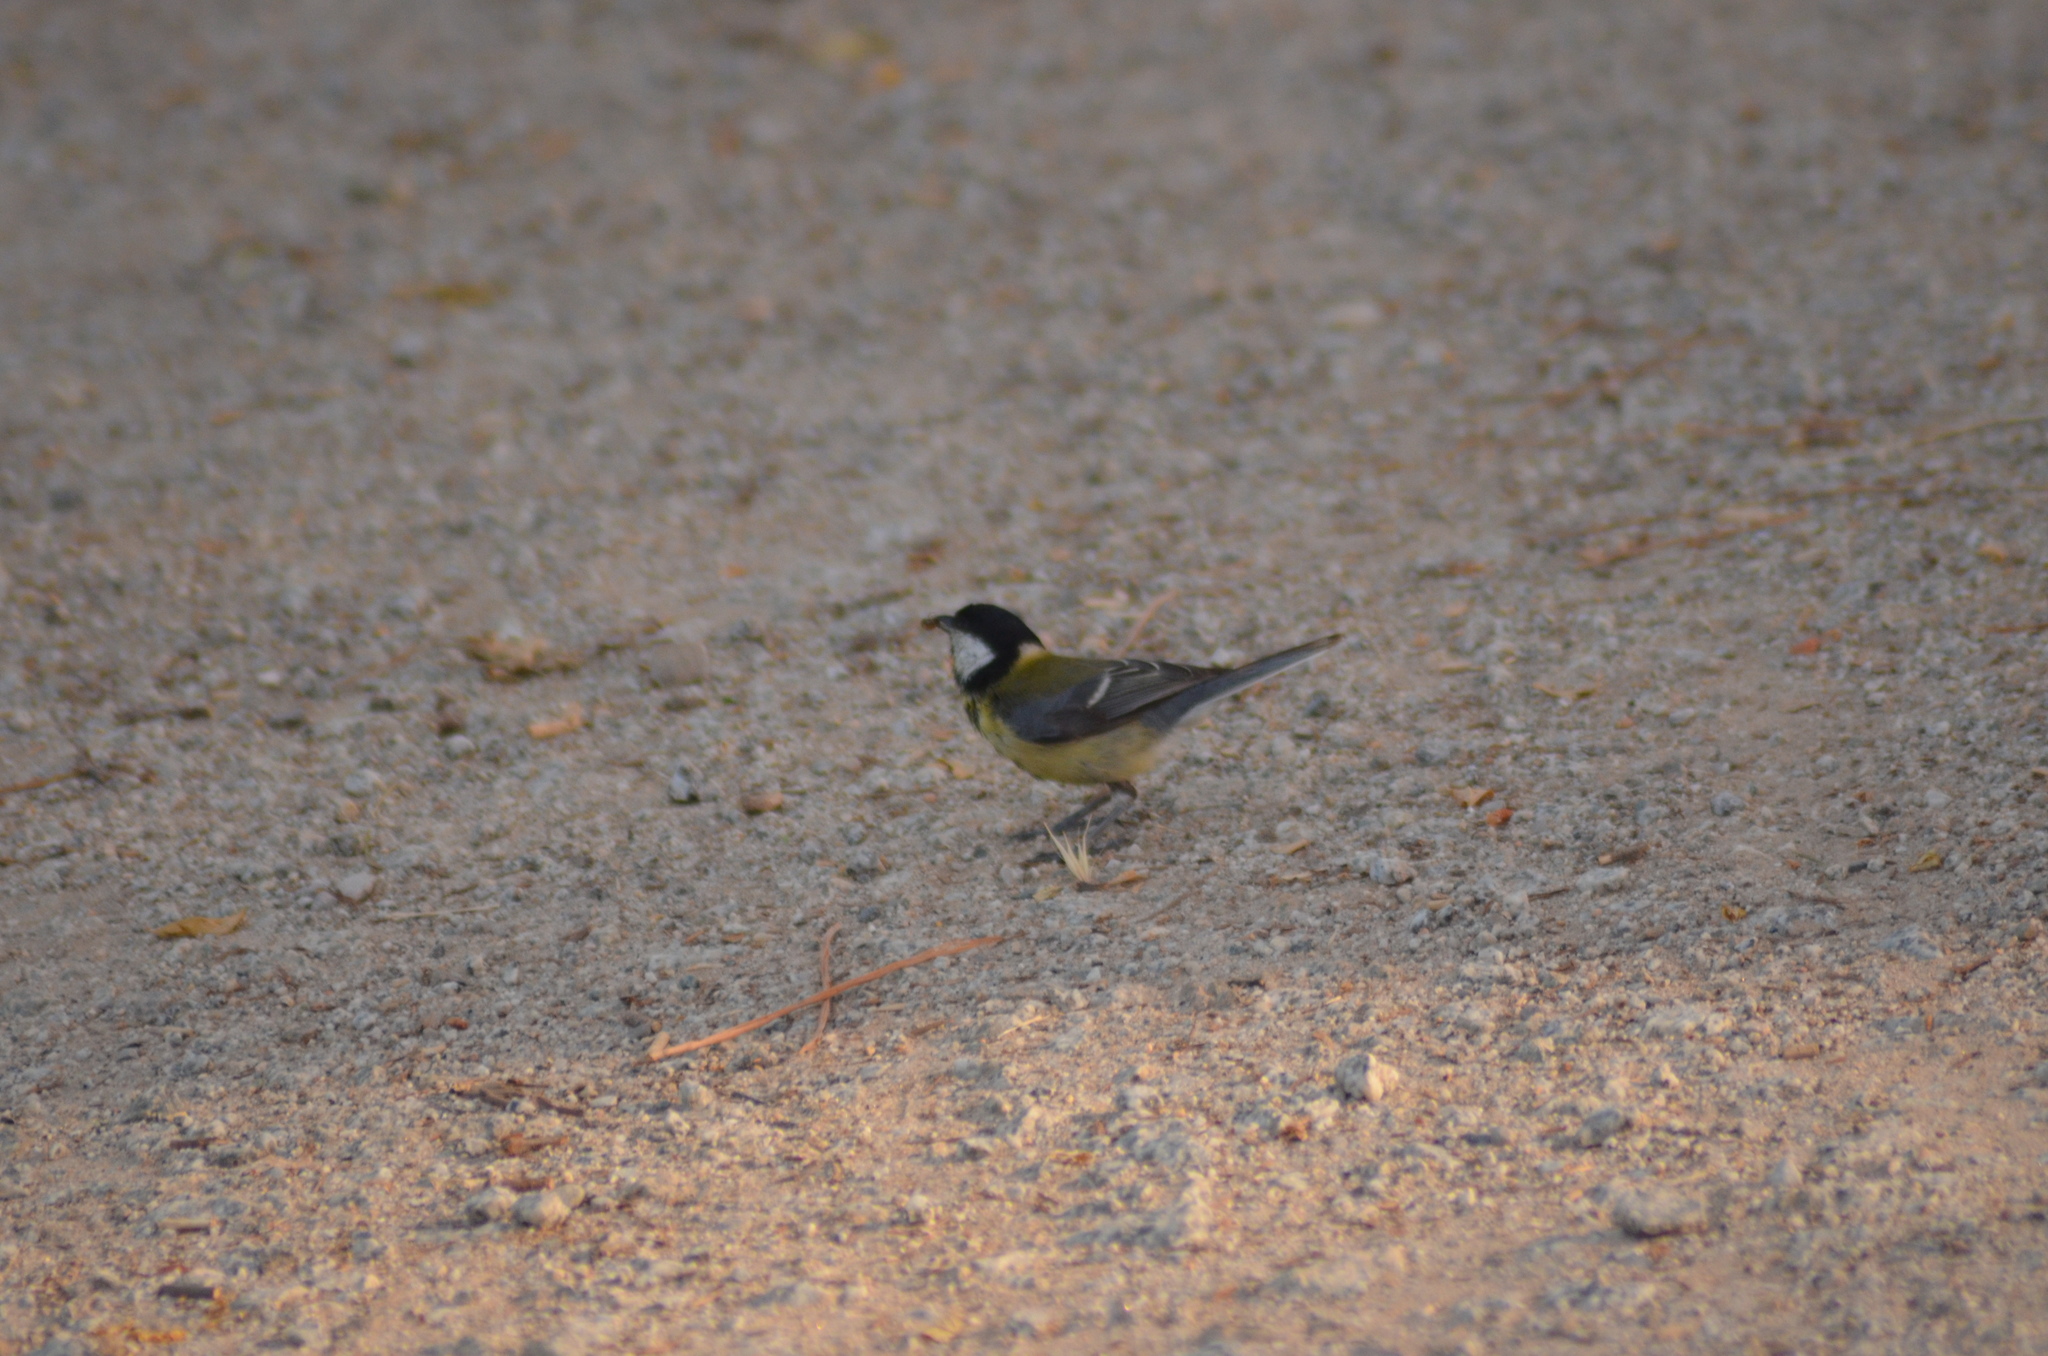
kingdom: Animalia
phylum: Chordata
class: Aves
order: Passeriformes
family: Paridae
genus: Parus
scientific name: Parus major
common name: Great tit
